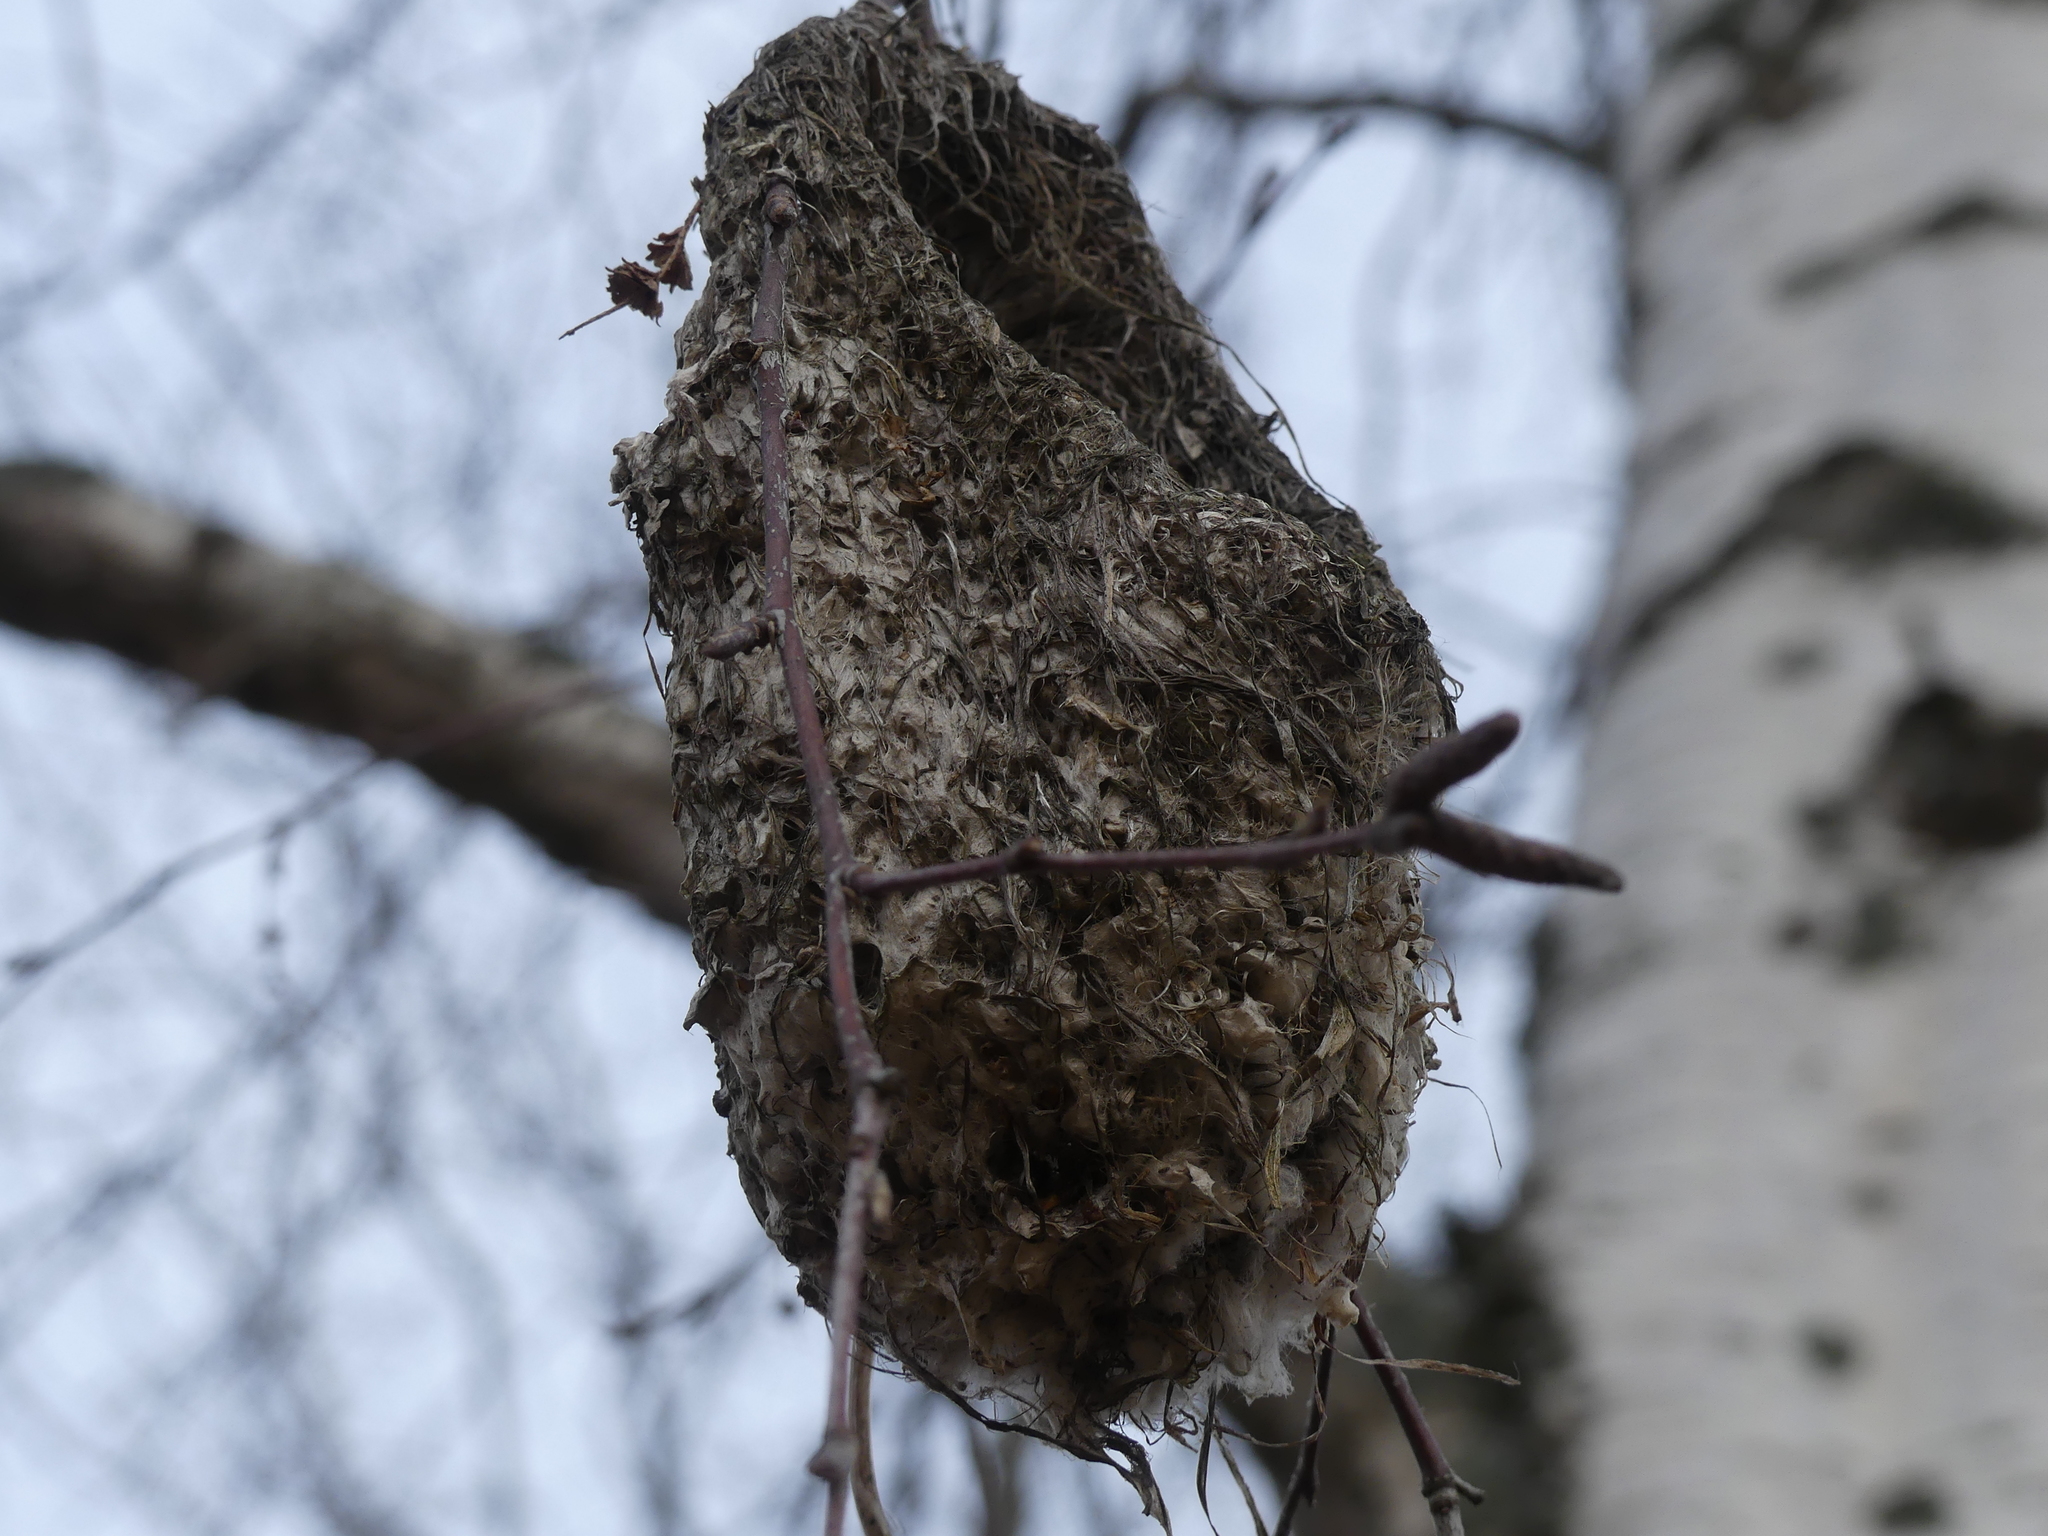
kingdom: Animalia
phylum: Chordata
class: Aves
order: Passeriformes
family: Remizidae
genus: Remiz
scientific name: Remiz pendulinus
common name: Eurasian penduline tit
